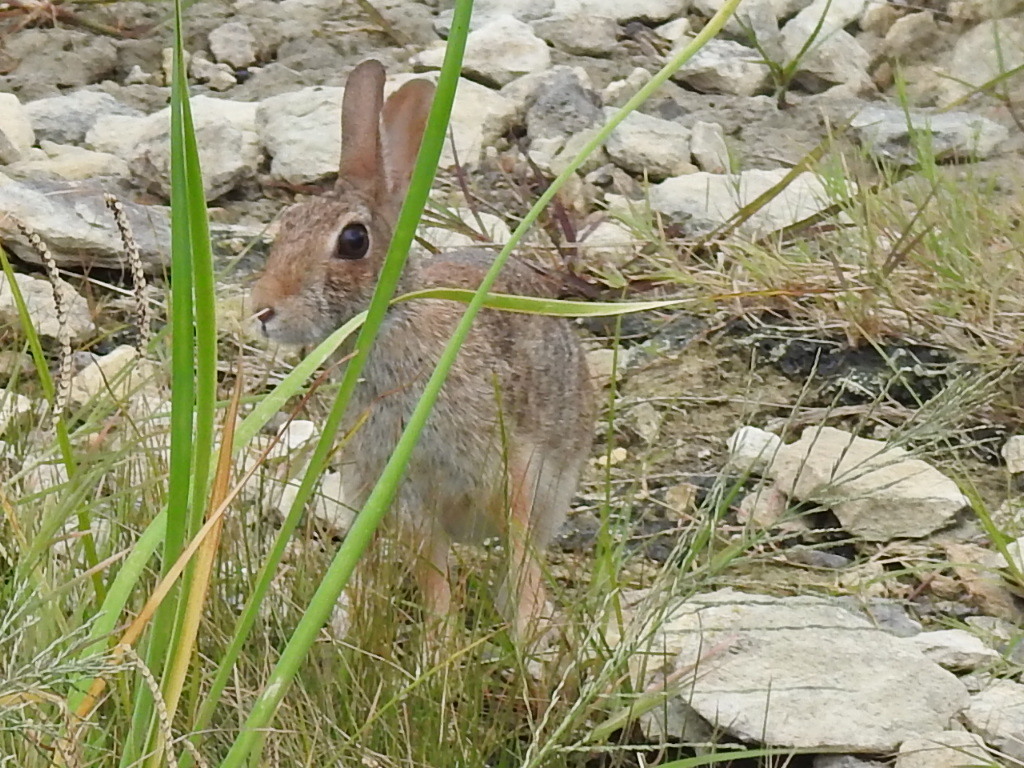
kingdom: Animalia
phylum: Chordata
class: Mammalia
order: Lagomorpha
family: Leporidae
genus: Sylvilagus
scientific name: Sylvilagus floridanus
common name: Eastern cottontail
